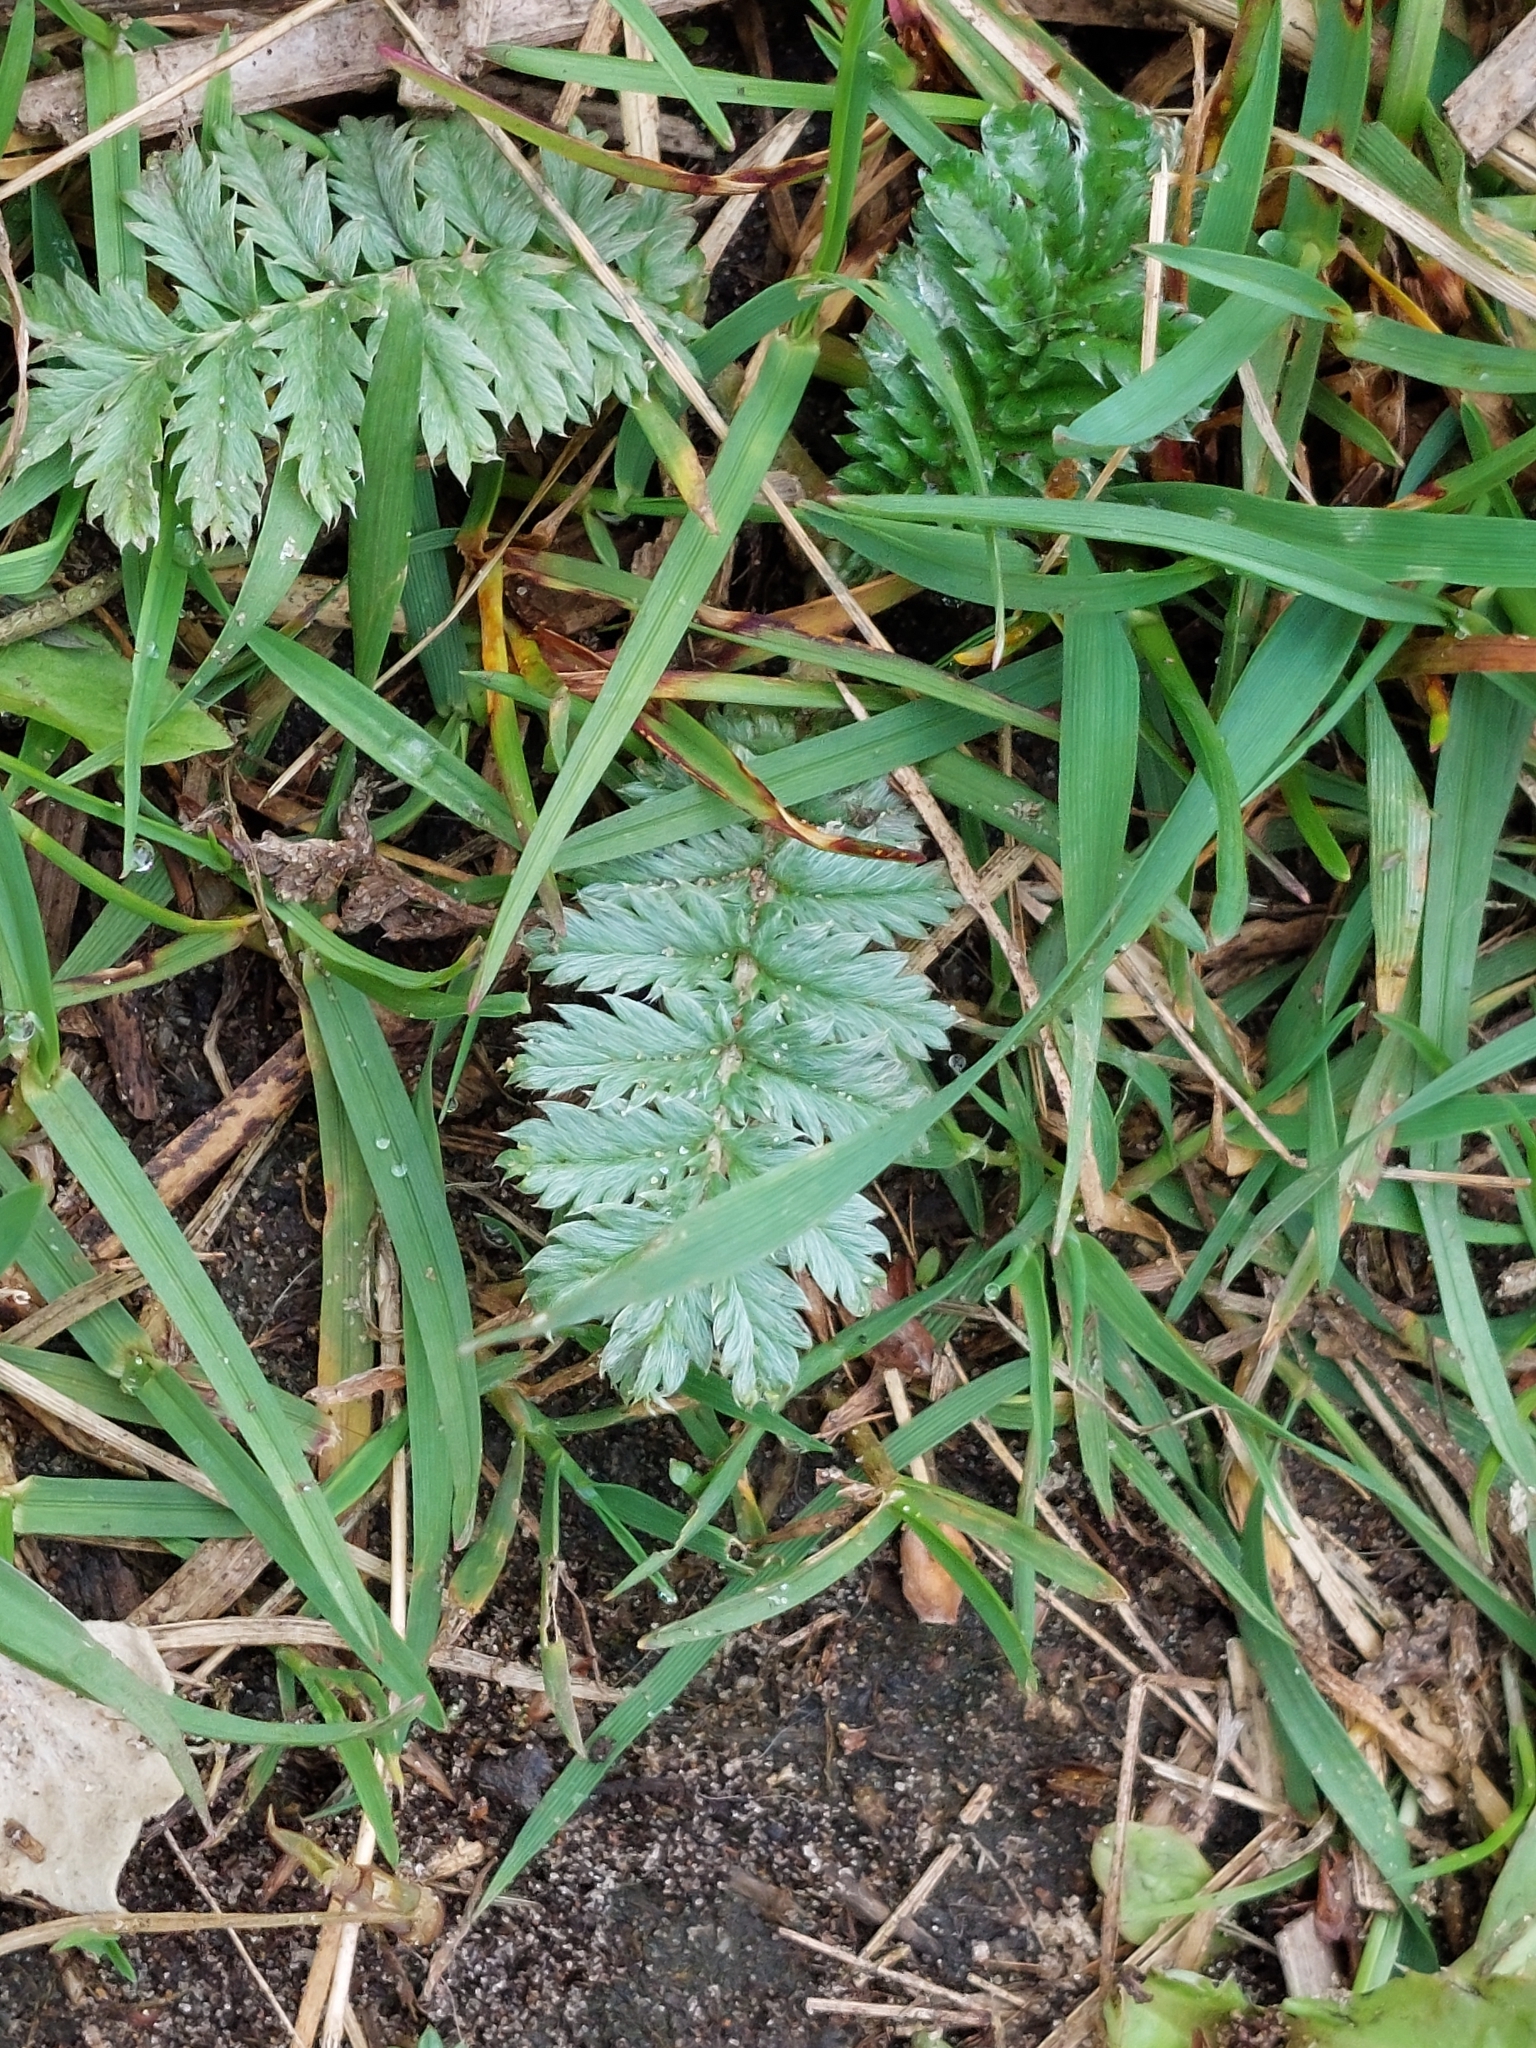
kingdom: Plantae
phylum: Tracheophyta
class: Magnoliopsida
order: Rosales
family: Rosaceae
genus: Argentina
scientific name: Argentina anserina
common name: Common silverweed
